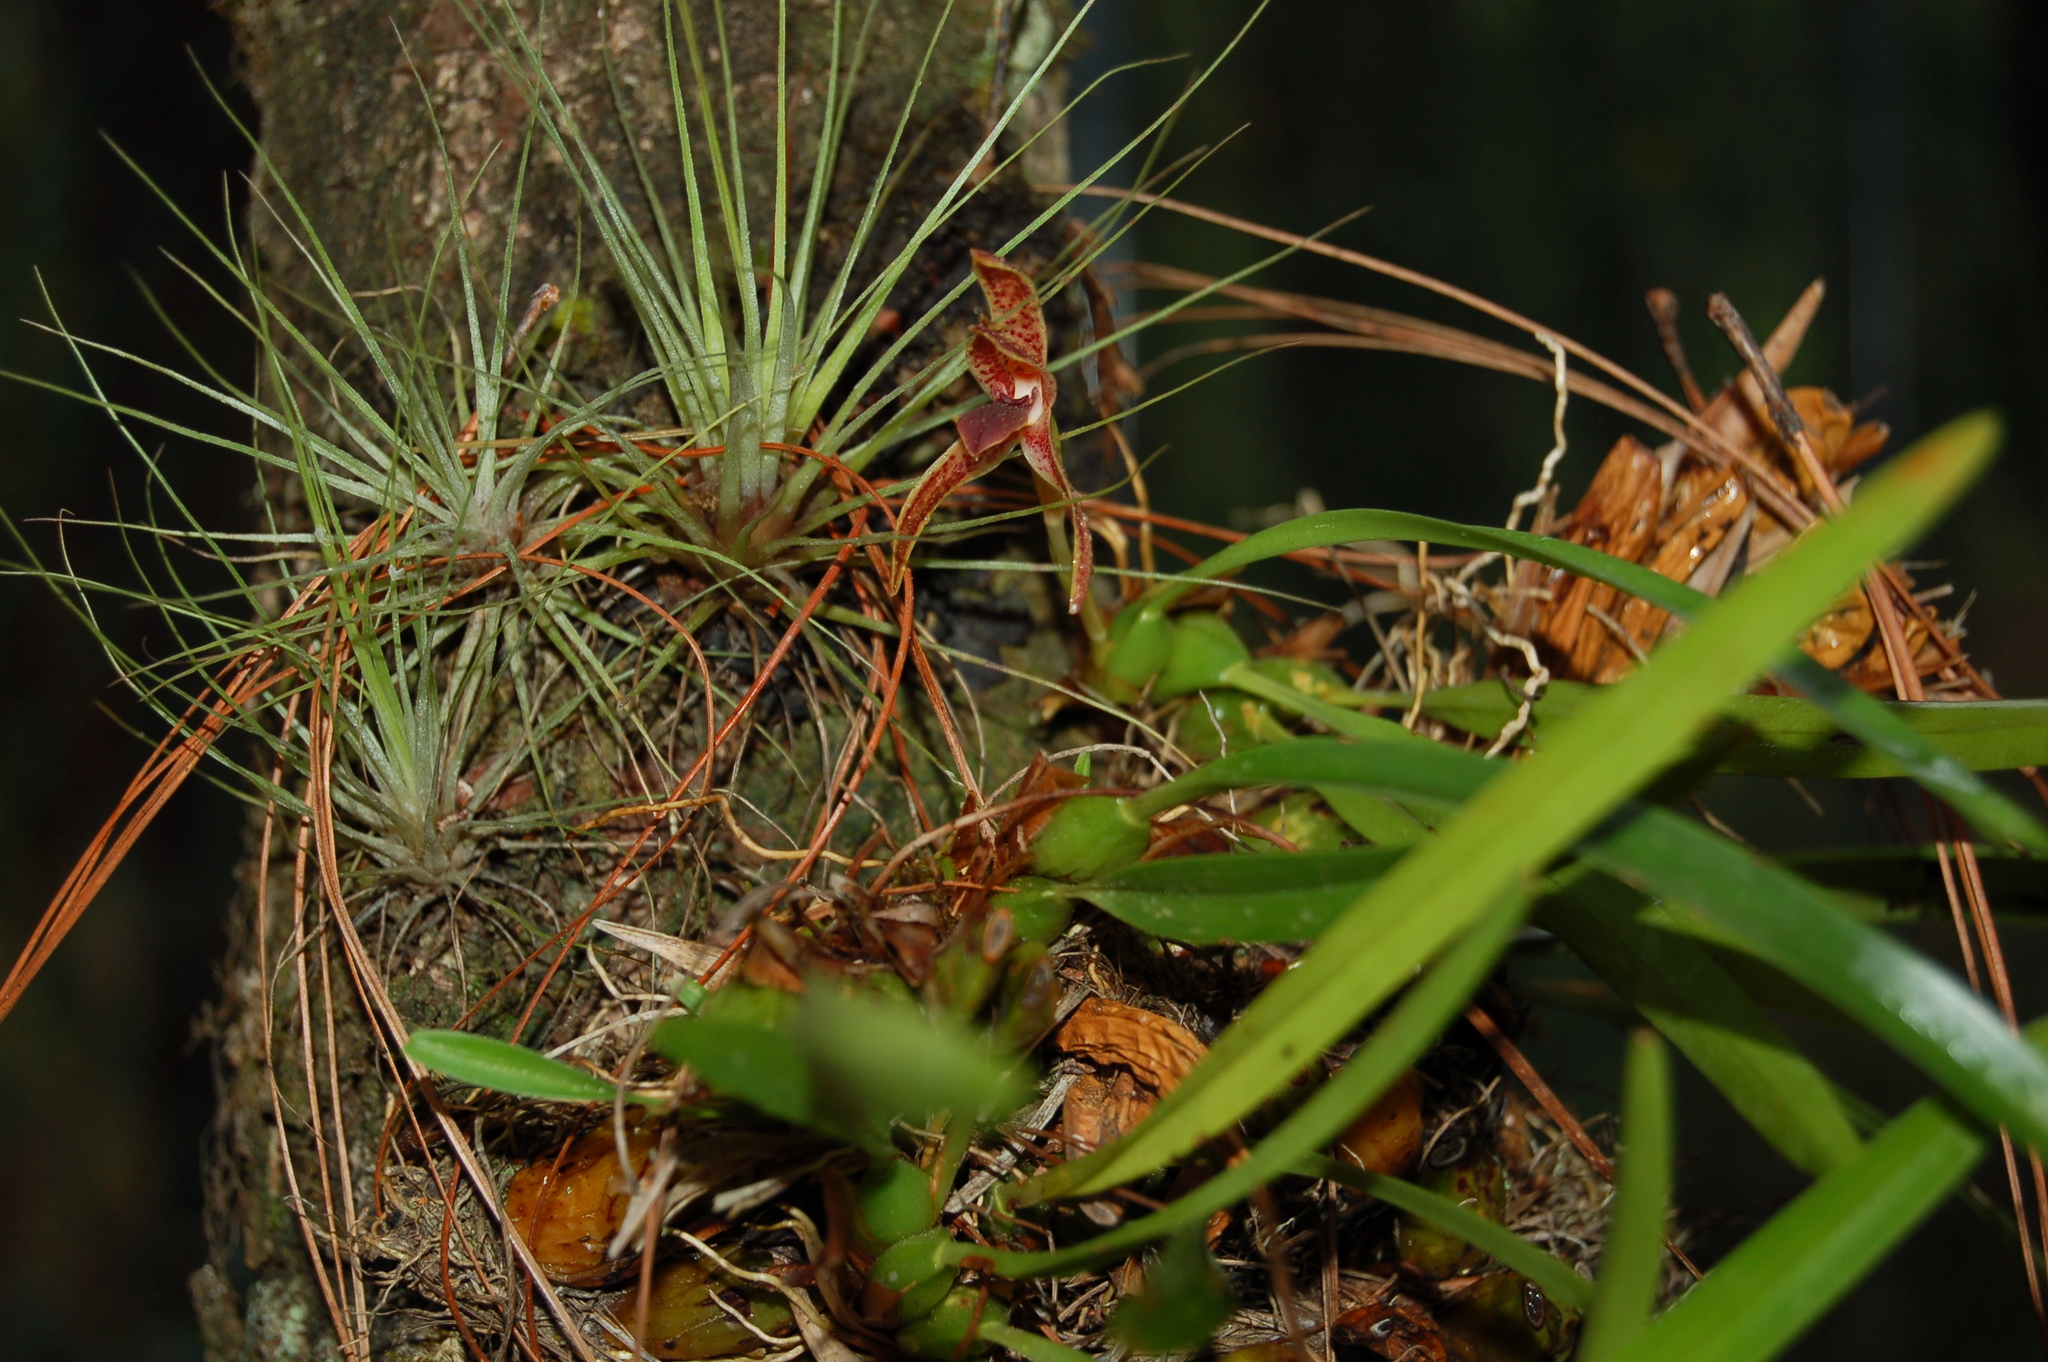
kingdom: Plantae
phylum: Tracheophyta
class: Liliopsida
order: Asparagales
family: Orchidaceae
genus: Maxillaria
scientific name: Maxillaria meleagris
